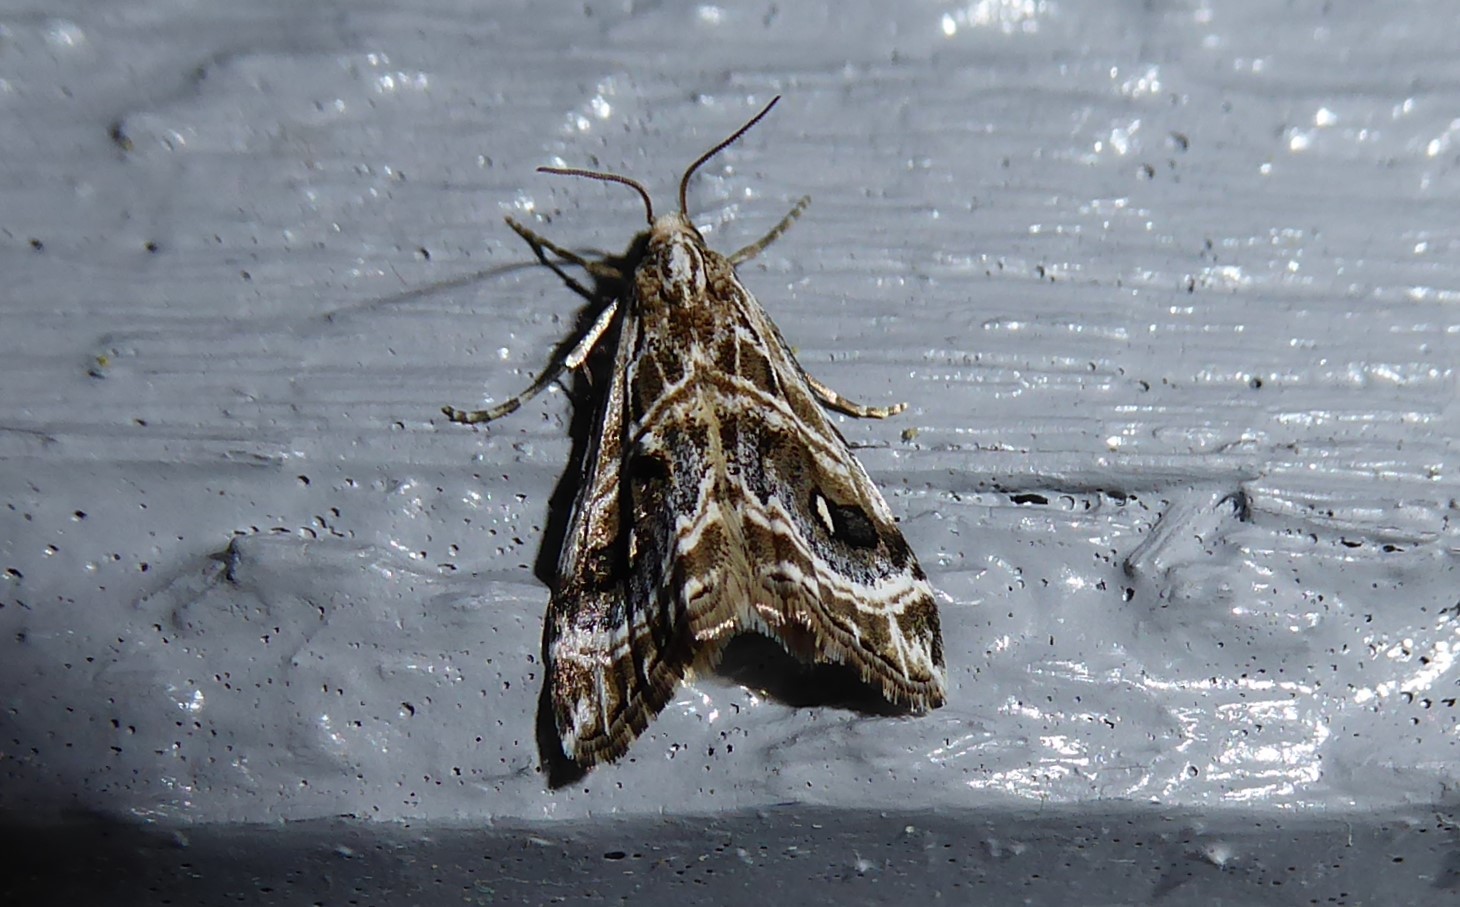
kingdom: Animalia
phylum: Arthropoda
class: Insecta
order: Lepidoptera
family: Crambidae
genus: Gadira
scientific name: Gadira acerella
